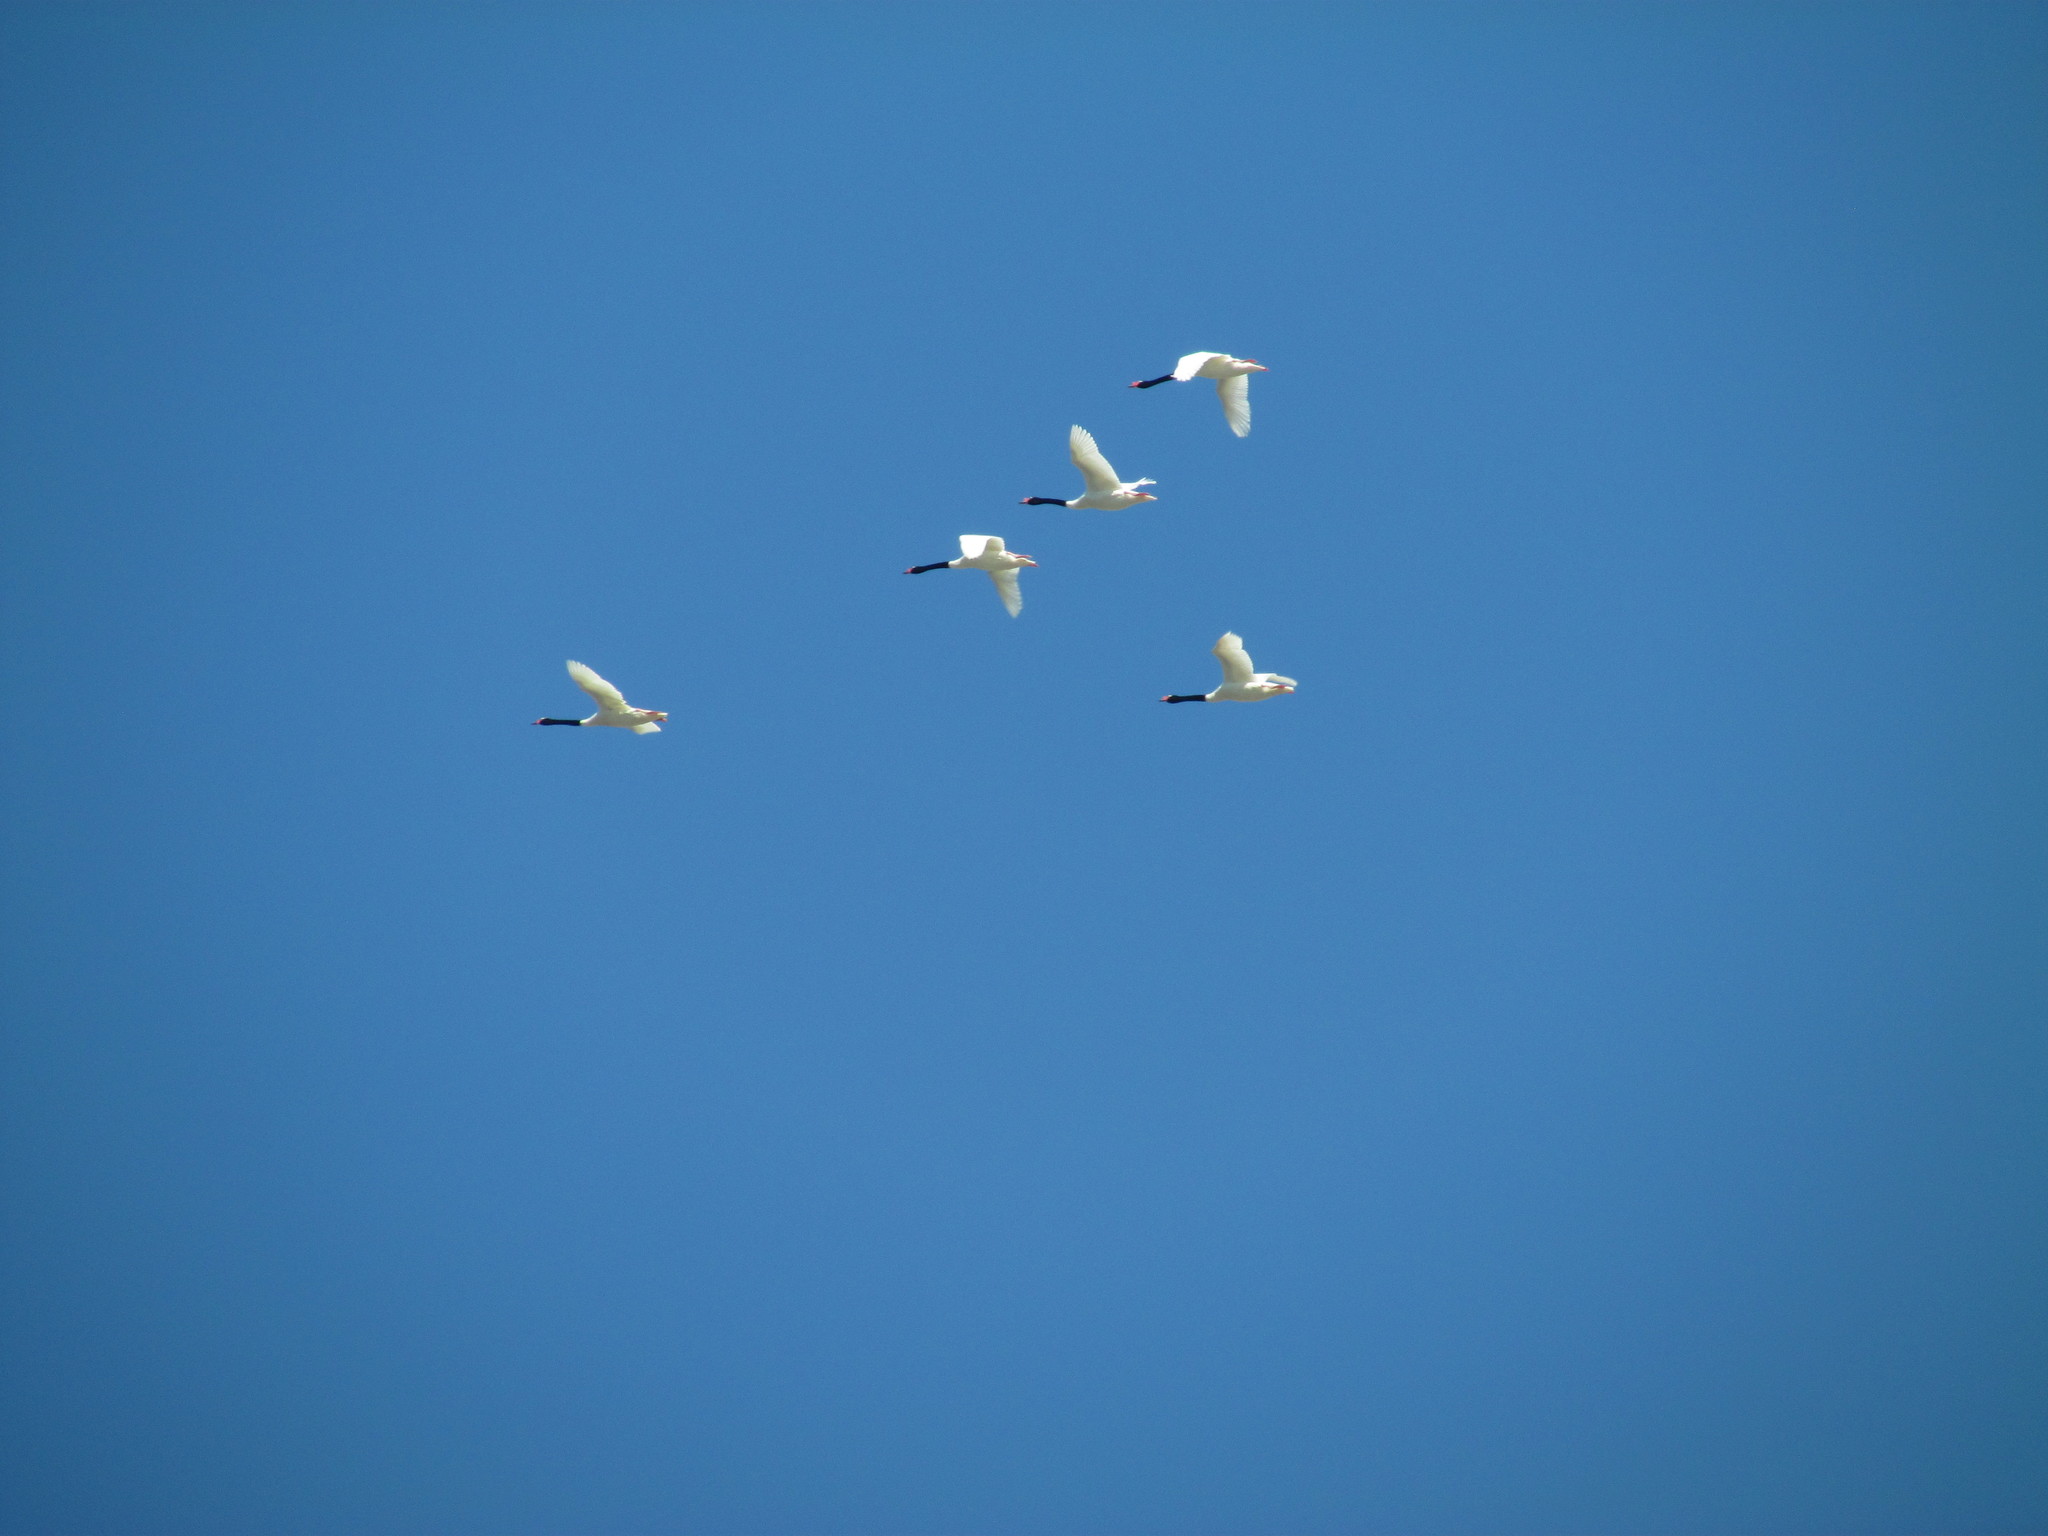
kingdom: Animalia
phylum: Chordata
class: Aves
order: Anseriformes
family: Anatidae
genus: Cygnus
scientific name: Cygnus melancoryphus
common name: Black-necked swan
